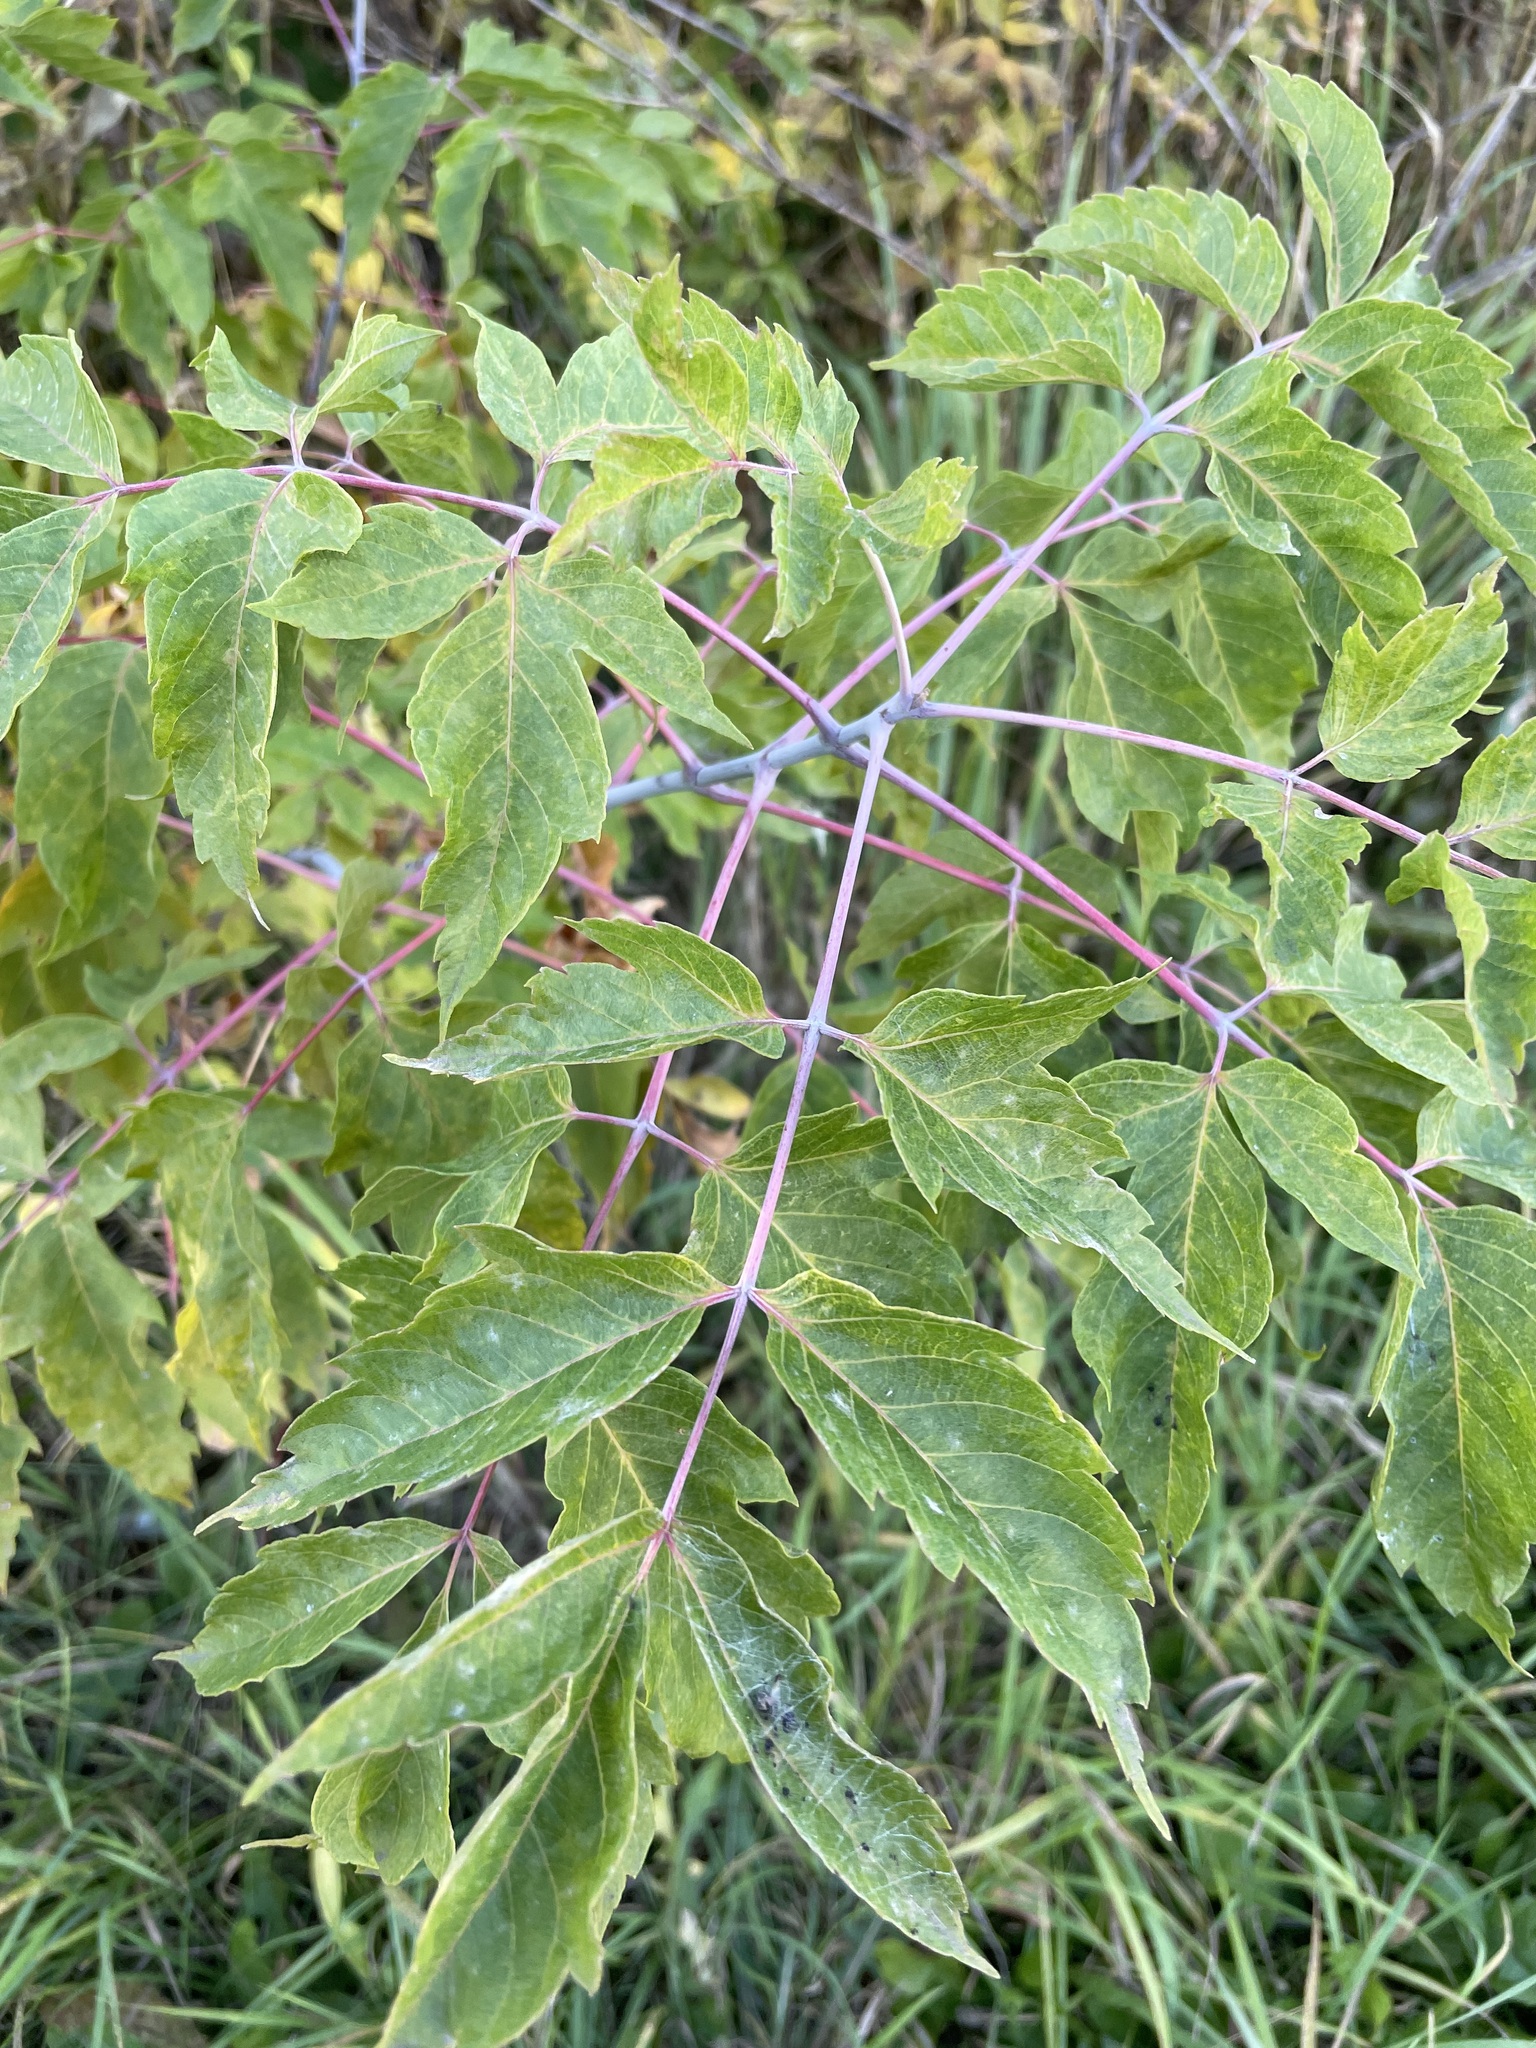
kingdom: Plantae
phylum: Tracheophyta
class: Magnoliopsida
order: Sapindales
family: Sapindaceae
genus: Acer
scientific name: Acer negundo
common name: Ashleaf maple
